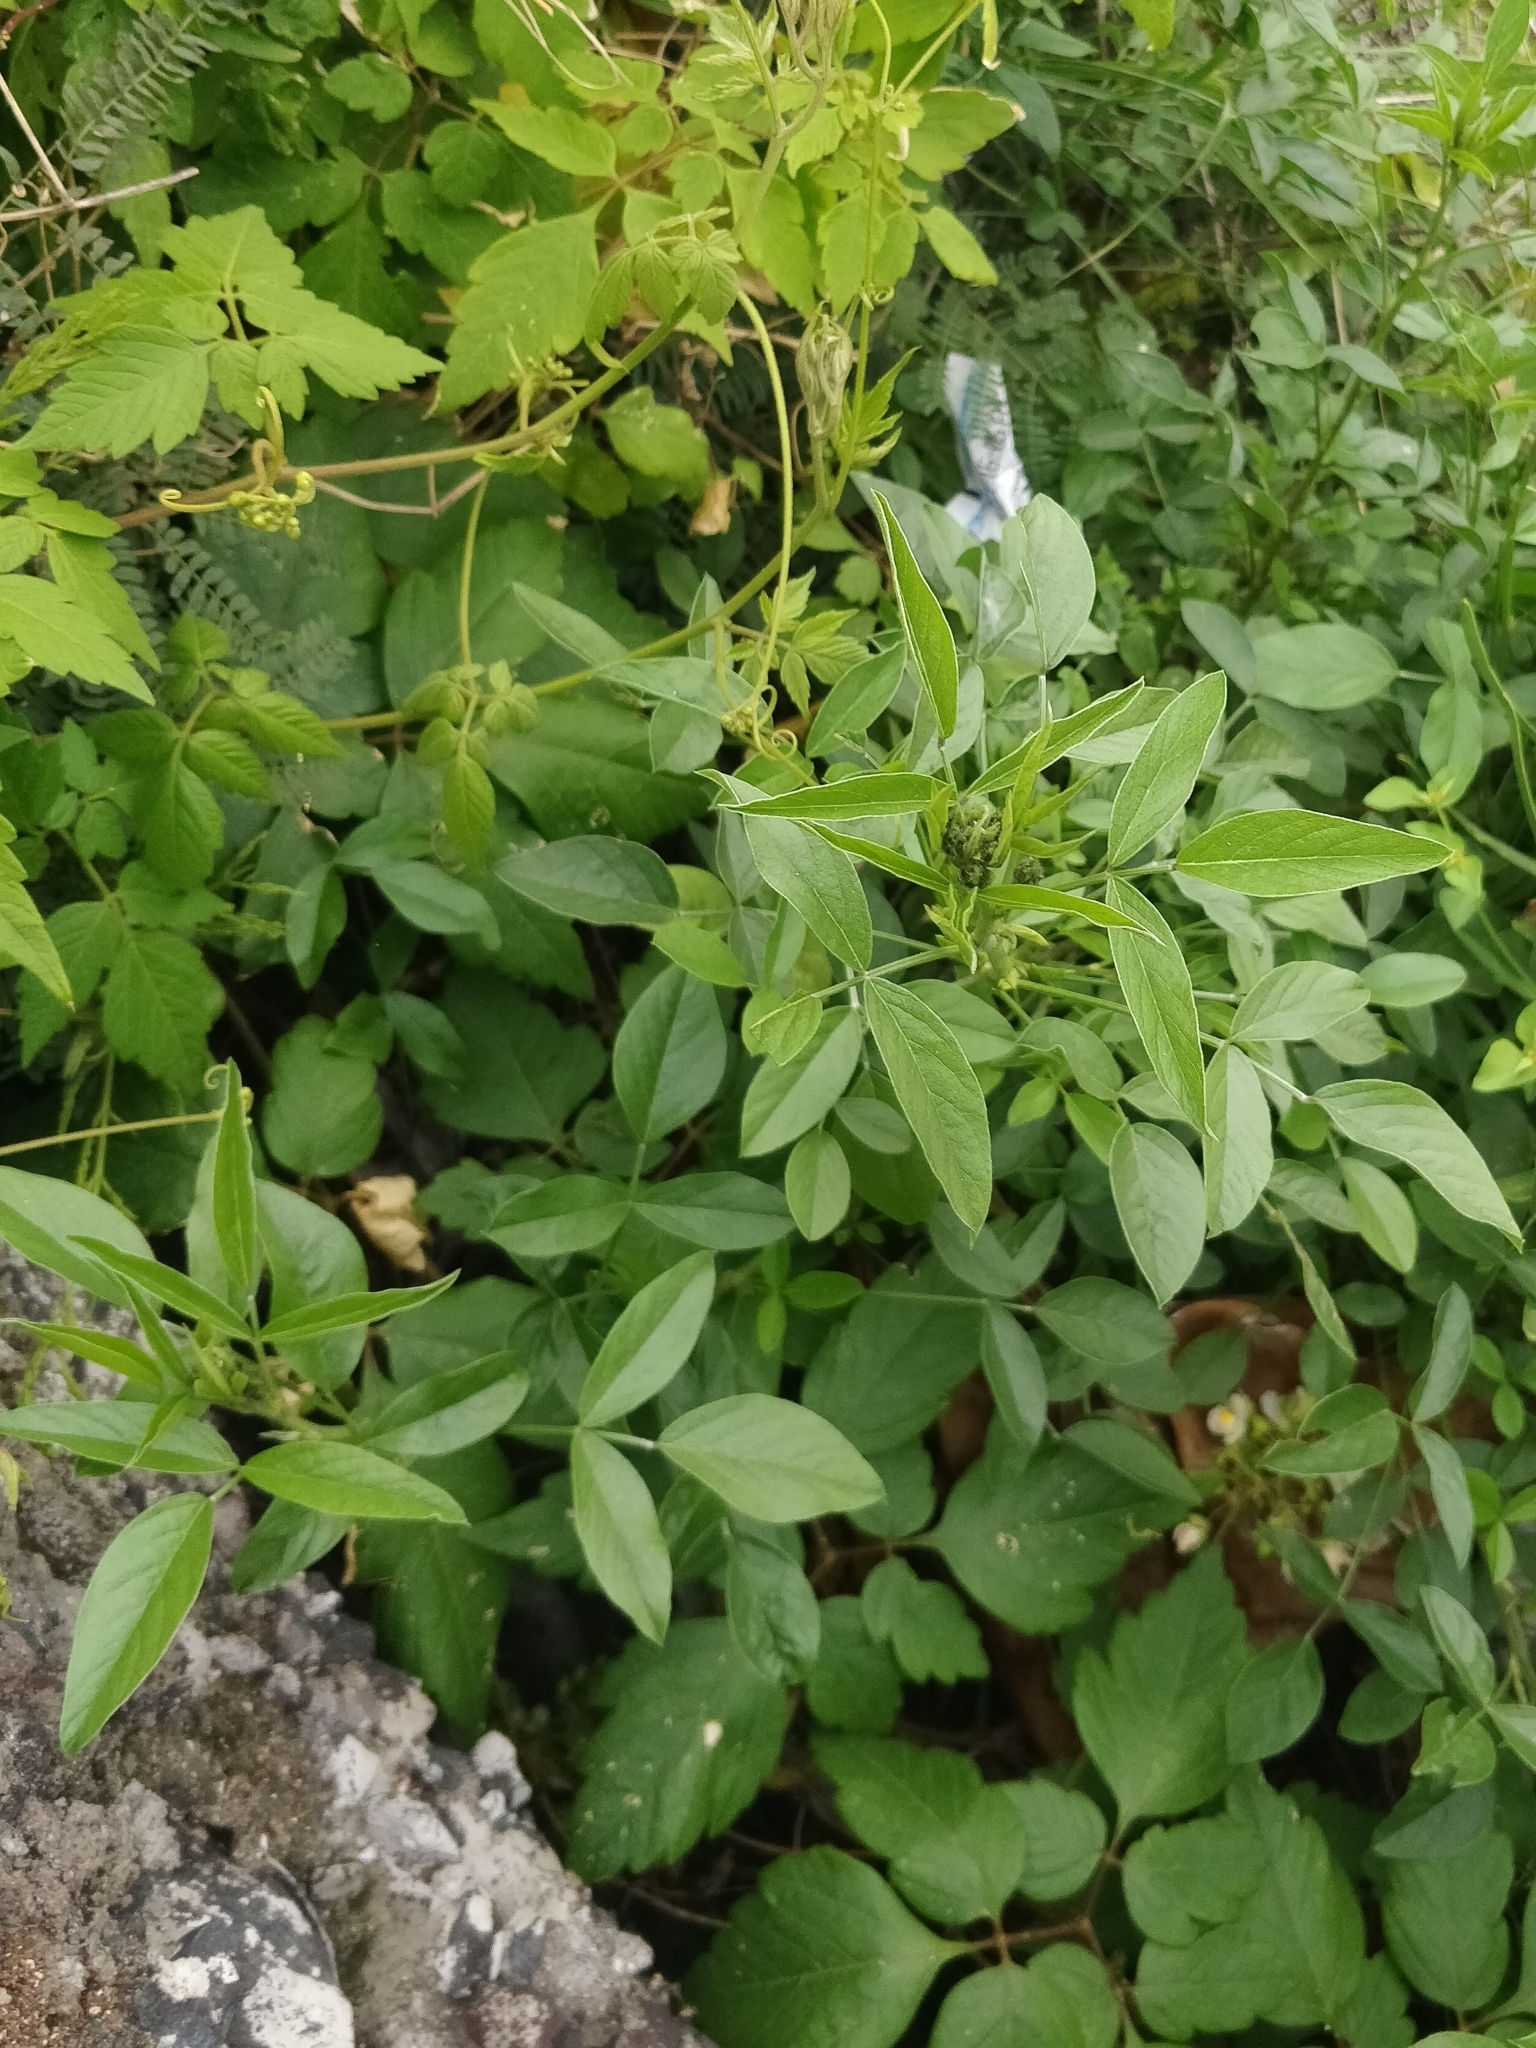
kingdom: Plantae
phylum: Tracheophyta
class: Magnoliopsida
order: Fabales
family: Fabaceae
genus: Bituminaria
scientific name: Bituminaria bituminosa
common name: Arabian pea
